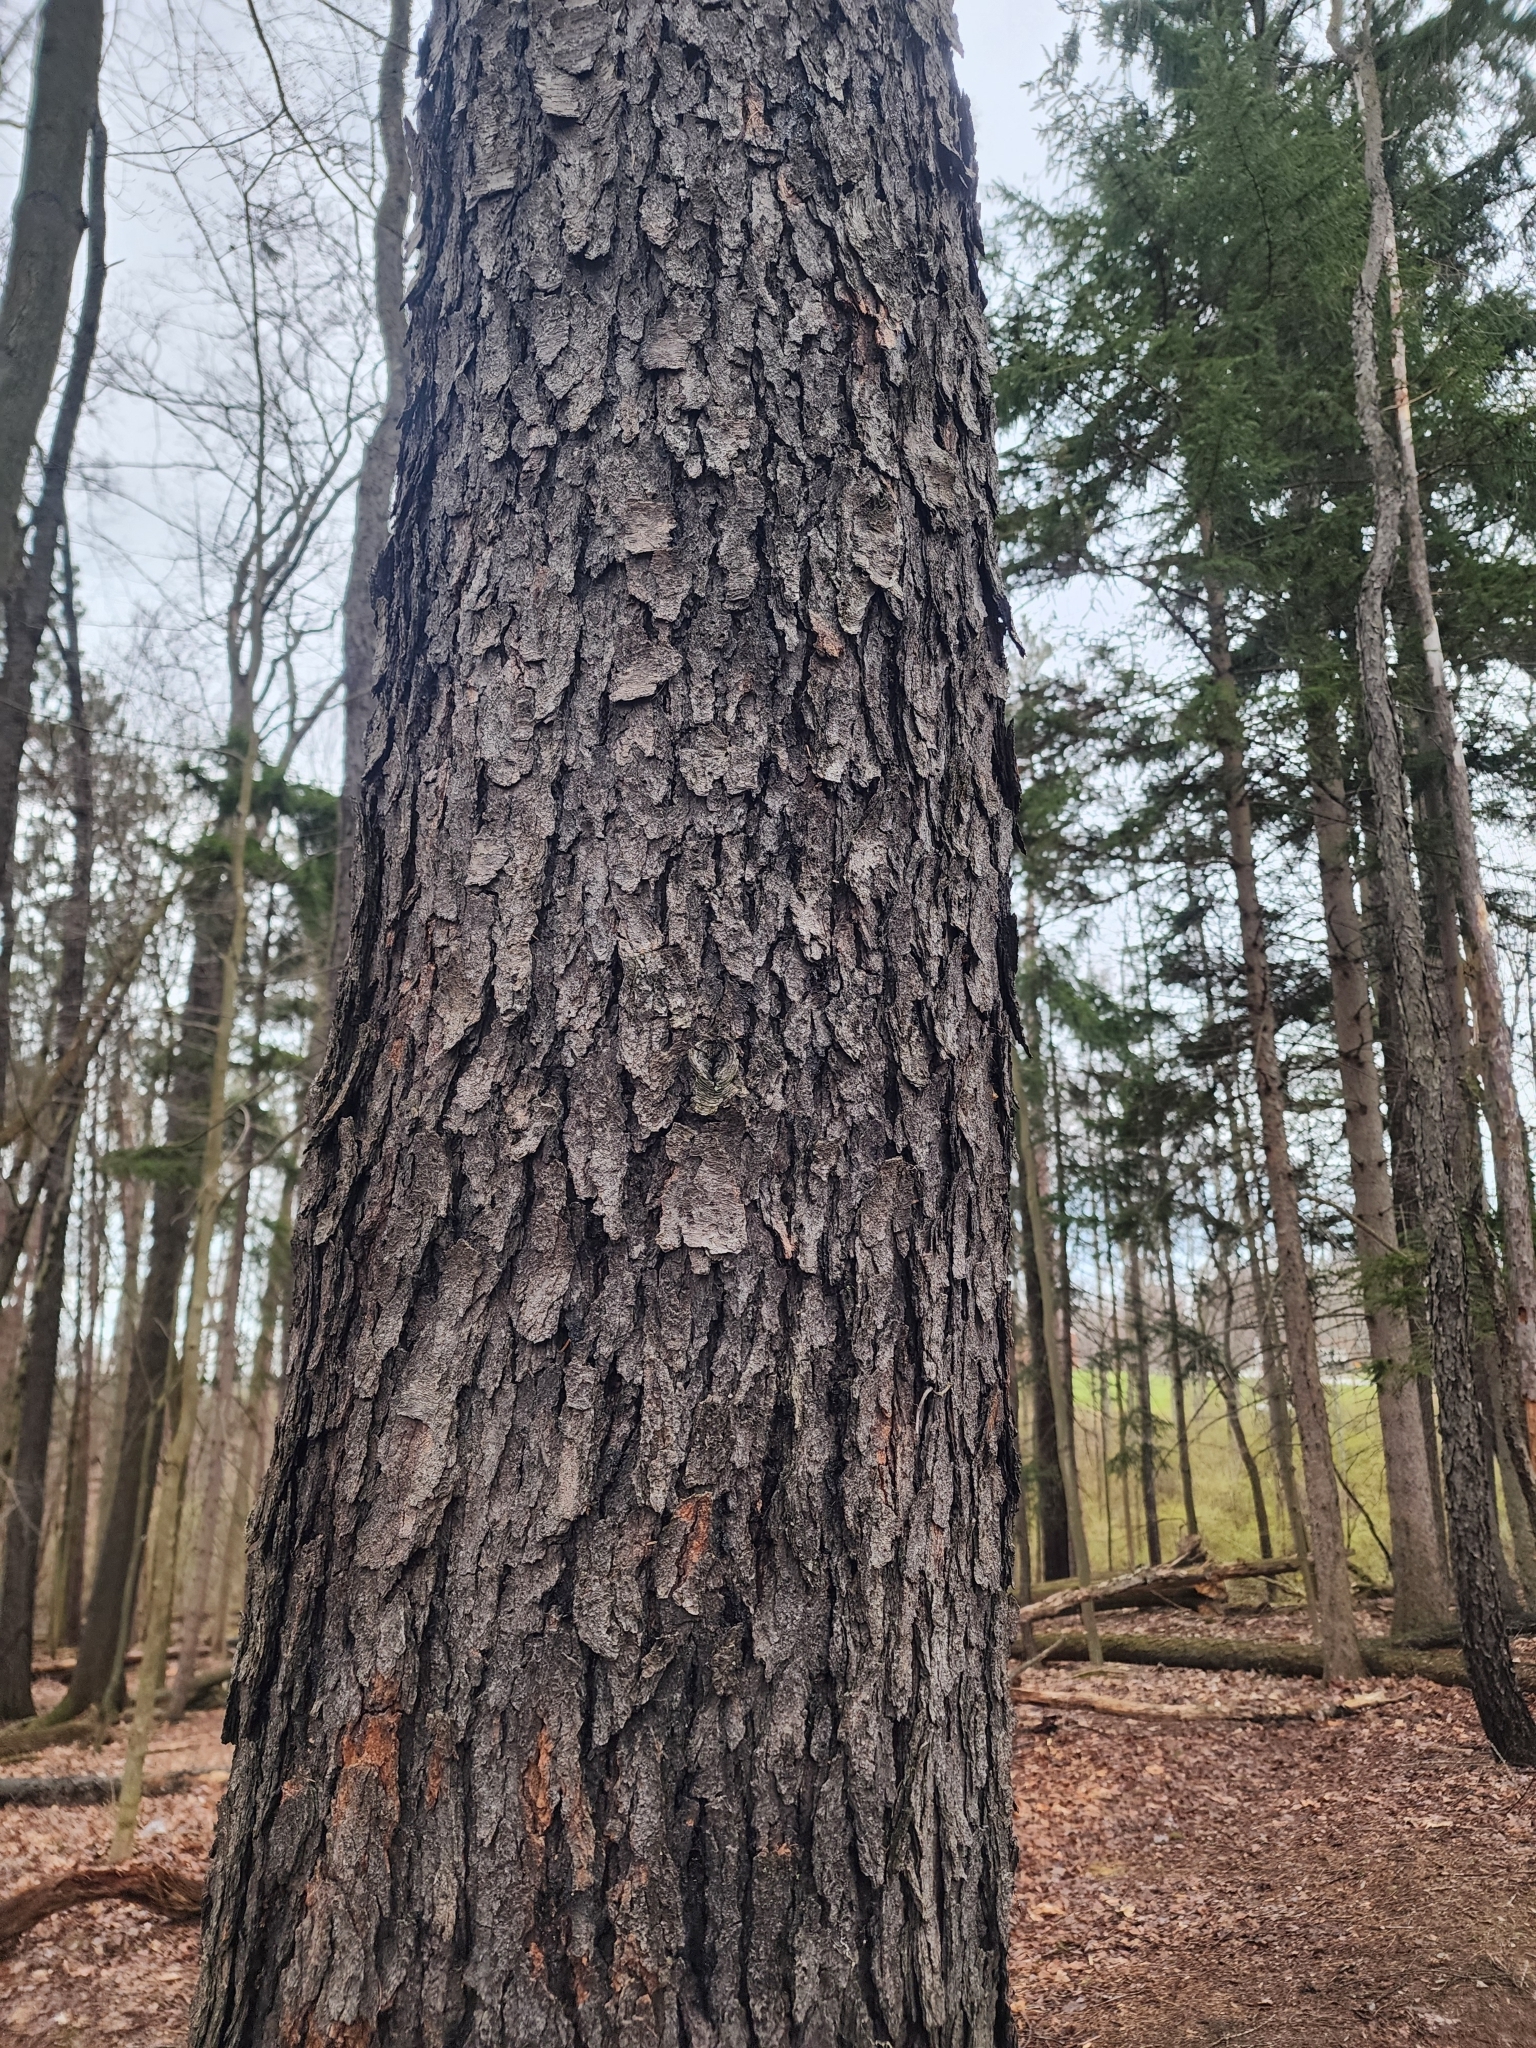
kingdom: Plantae
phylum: Tracheophyta
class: Magnoliopsida
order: Rosales
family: Rosaceae
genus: Prunus
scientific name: Prunus serotina
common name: Black cherry
